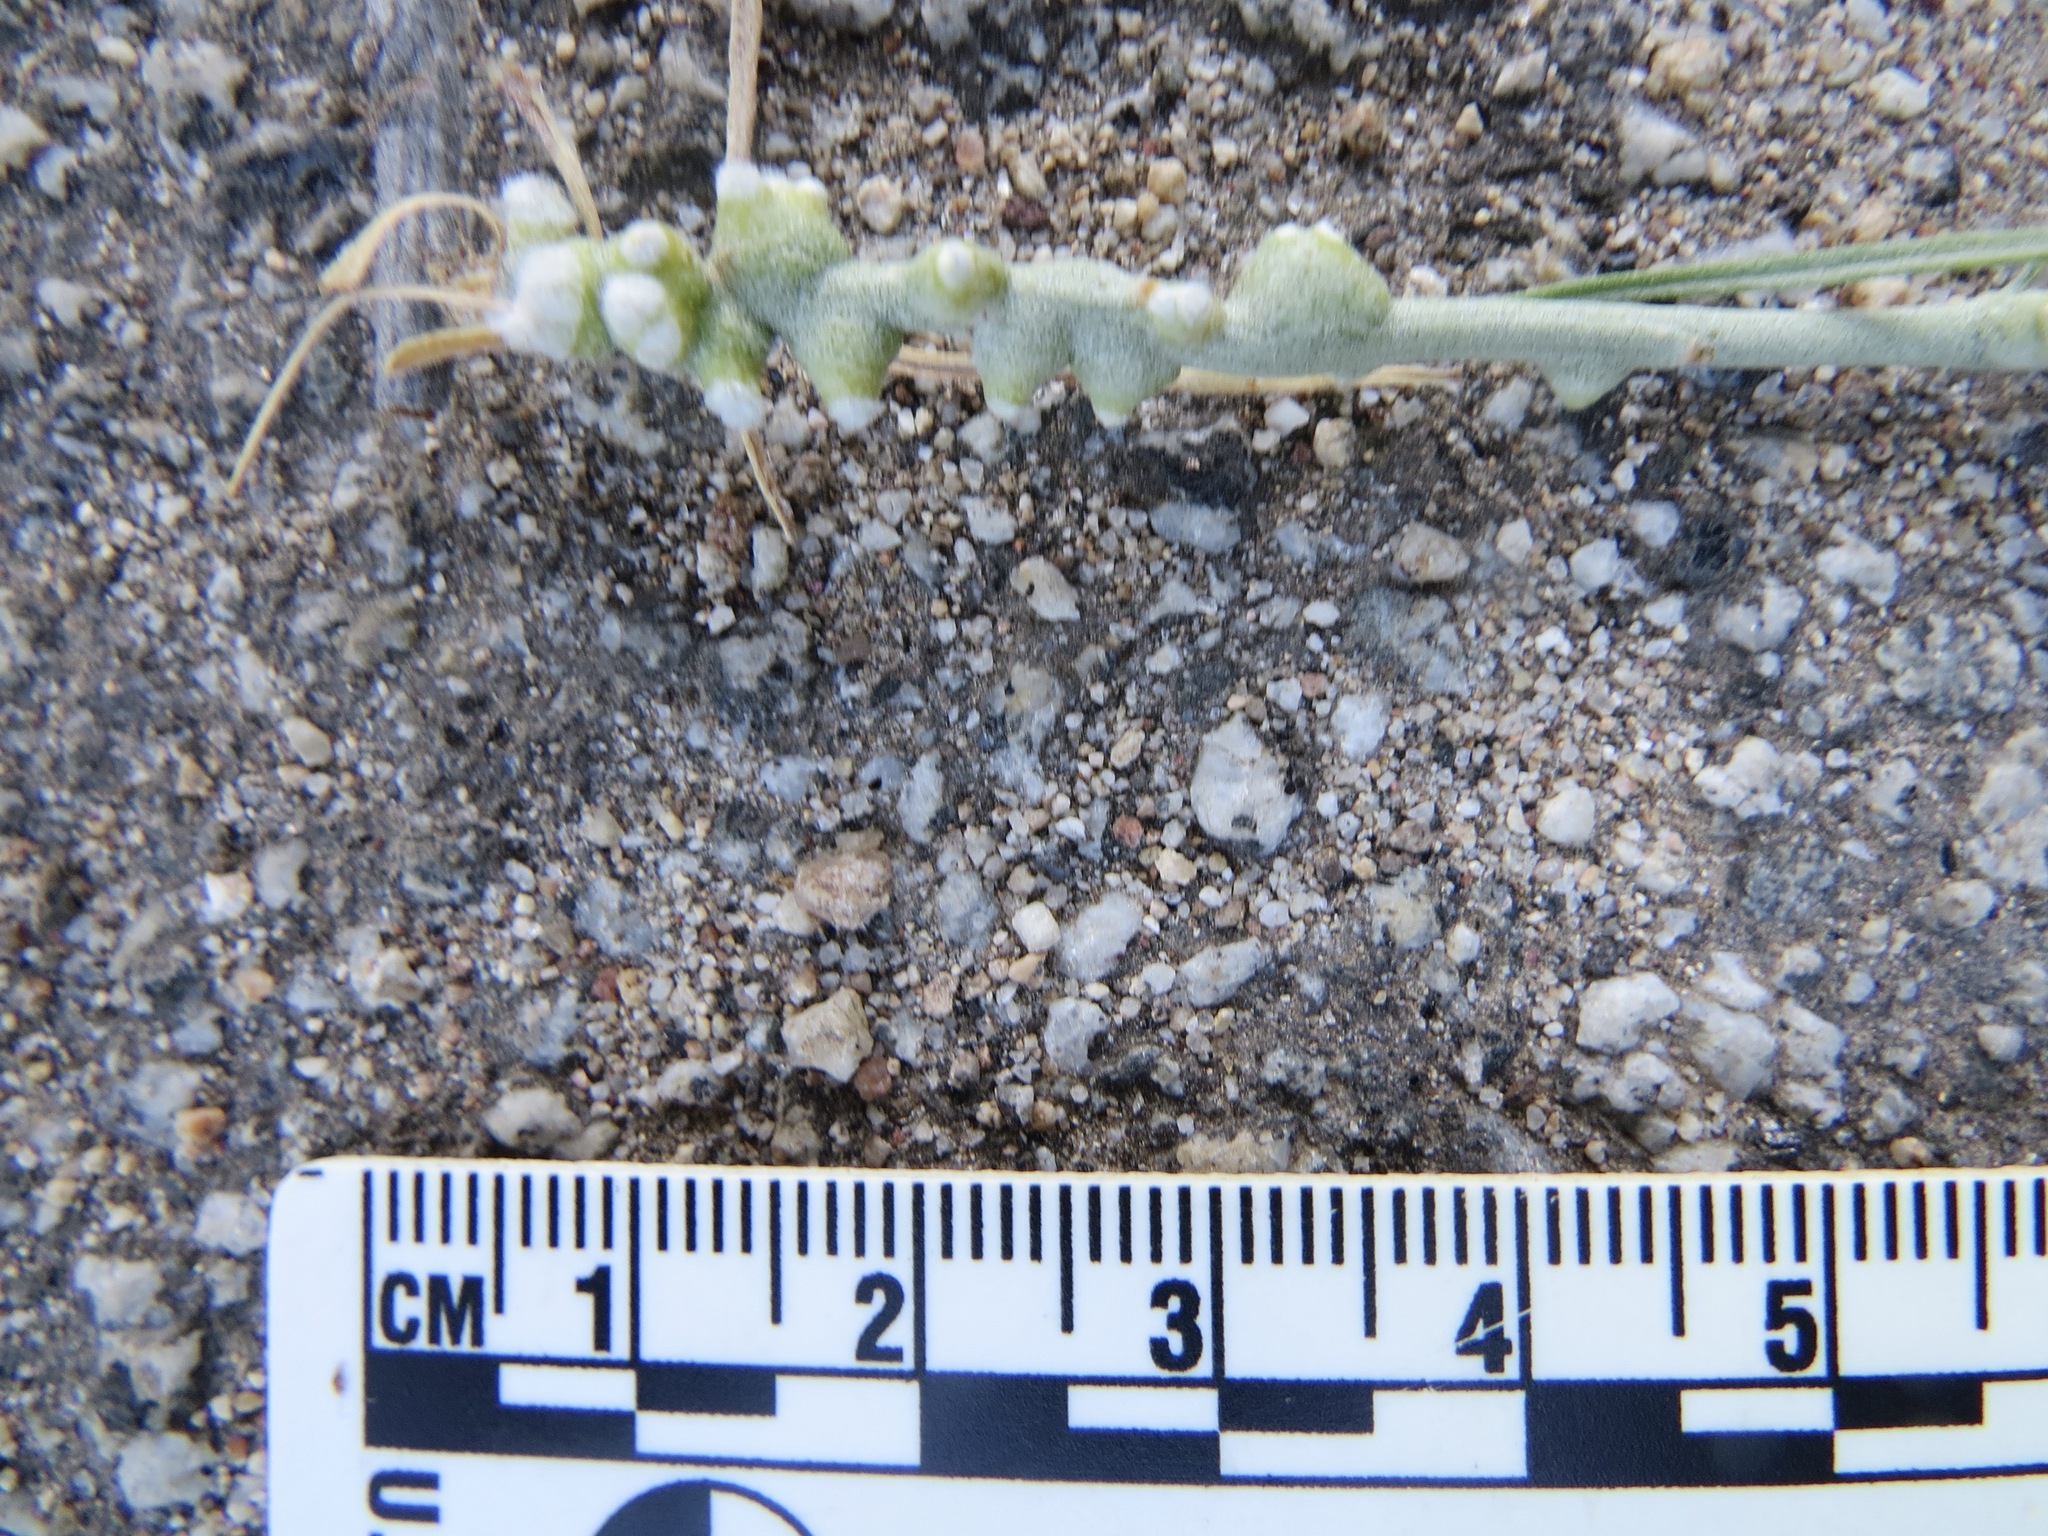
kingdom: Animalia
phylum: Arthropoda
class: Insecta
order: Diptera
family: Cecidomyiidae
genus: Rhopalomyia
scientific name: Rhopalomyia chrysothamni
